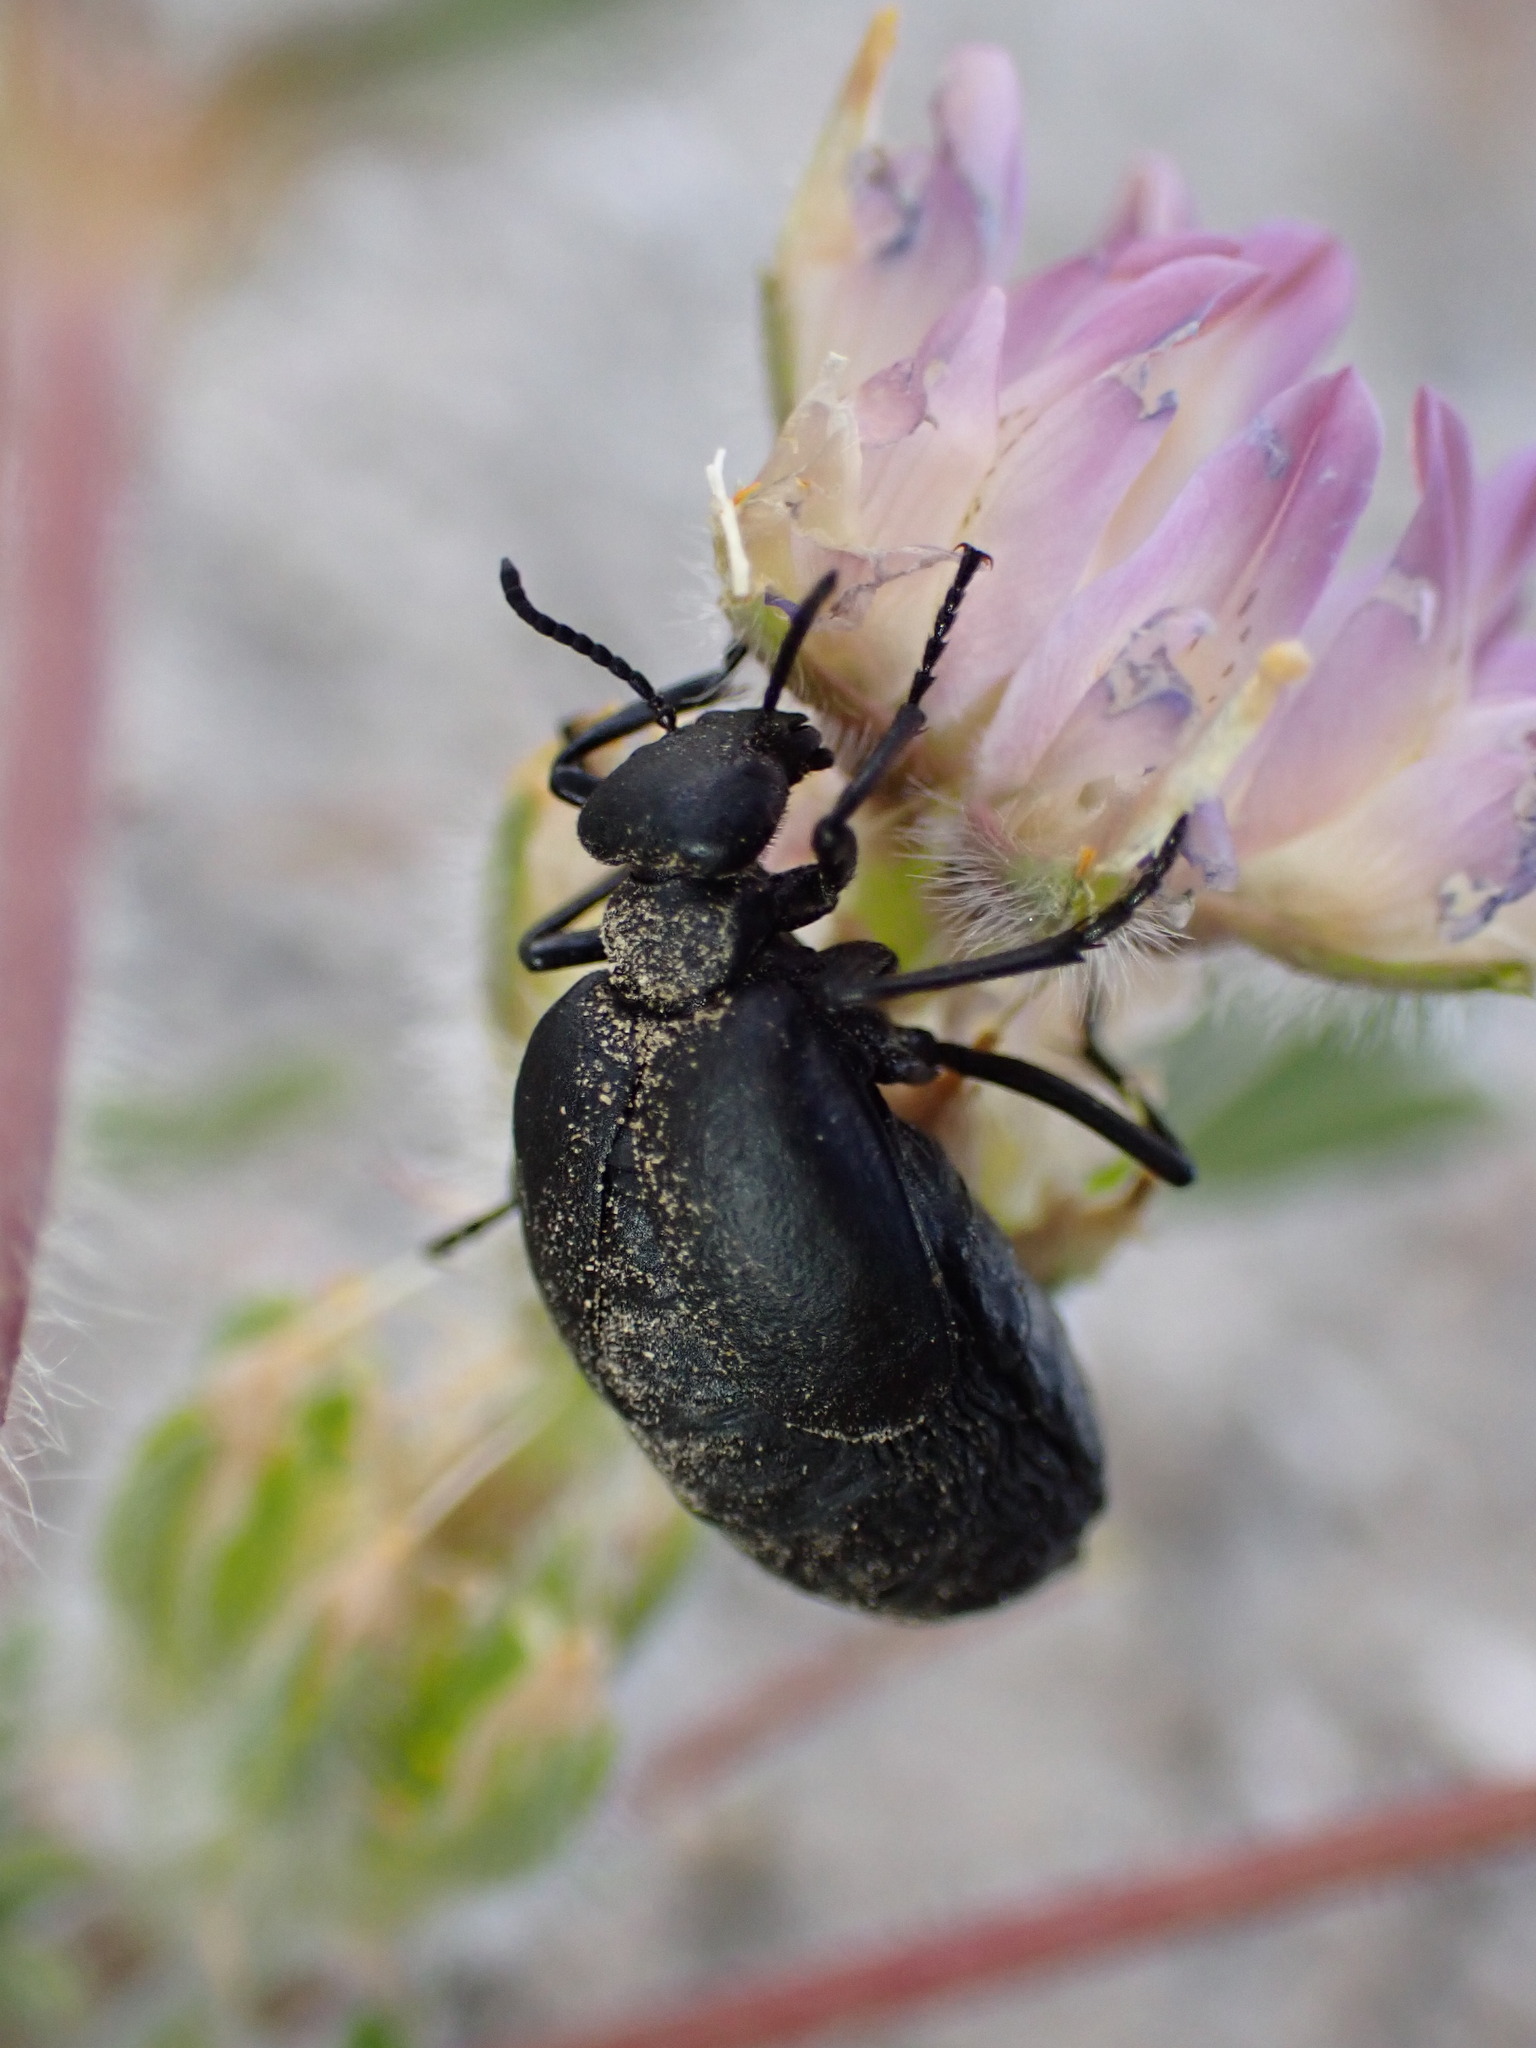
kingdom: Animalia
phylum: Arthropoda
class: Insecta
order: Coleoptera
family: Meloidae
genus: Cordylospasta
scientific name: Cordylospasta opaca
